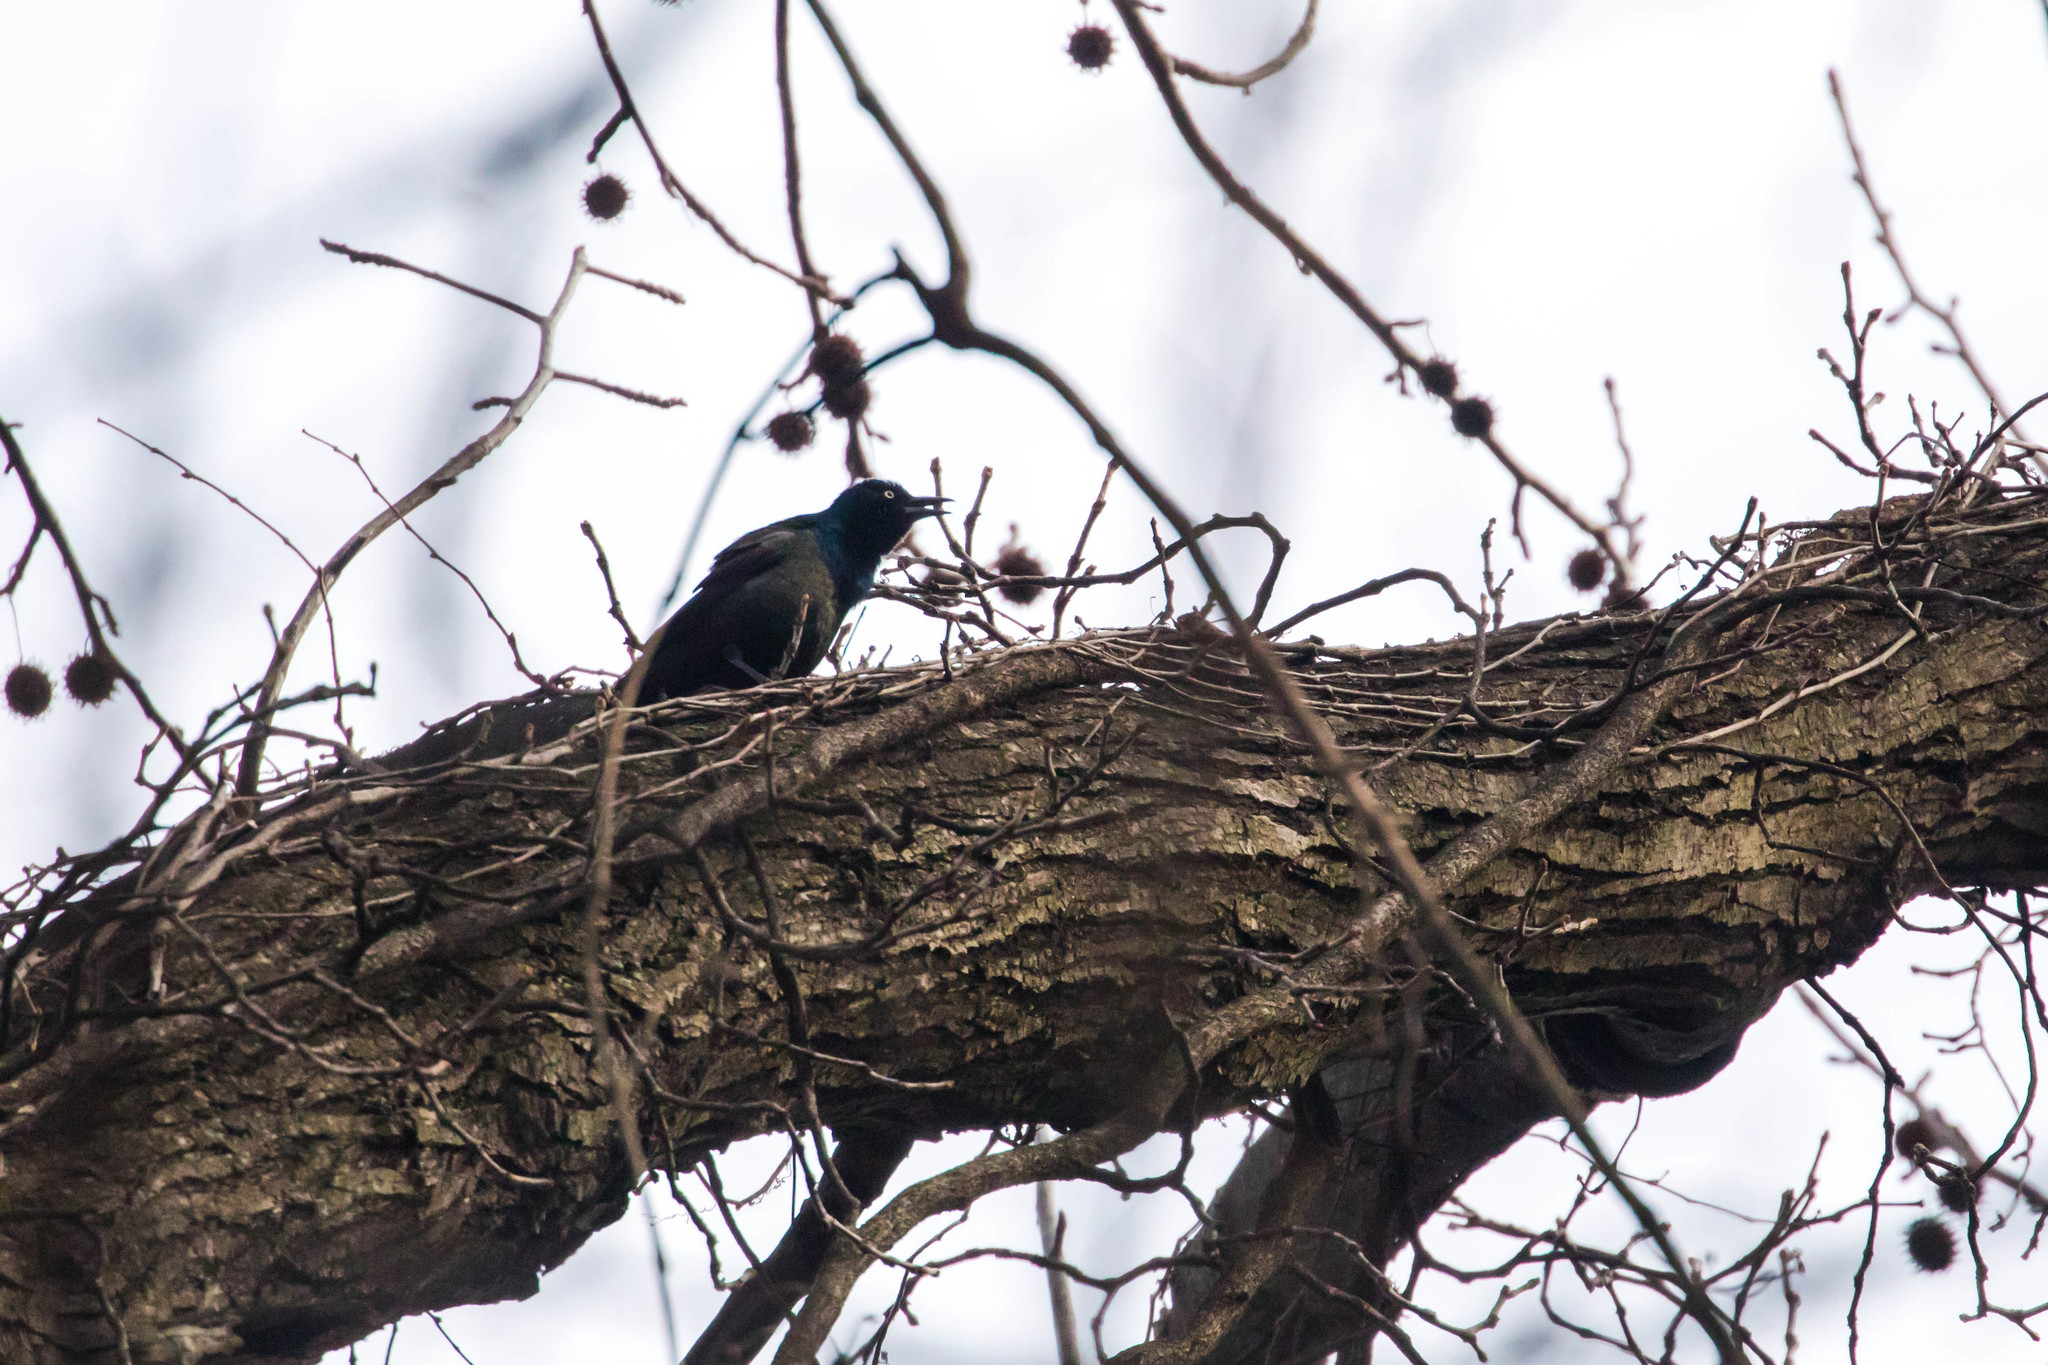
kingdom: Animalia
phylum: Chordata
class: Aves
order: Passeriformes
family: Icteridae
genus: Quiscalus
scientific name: Quiscalus quiscula
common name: Common grackle
